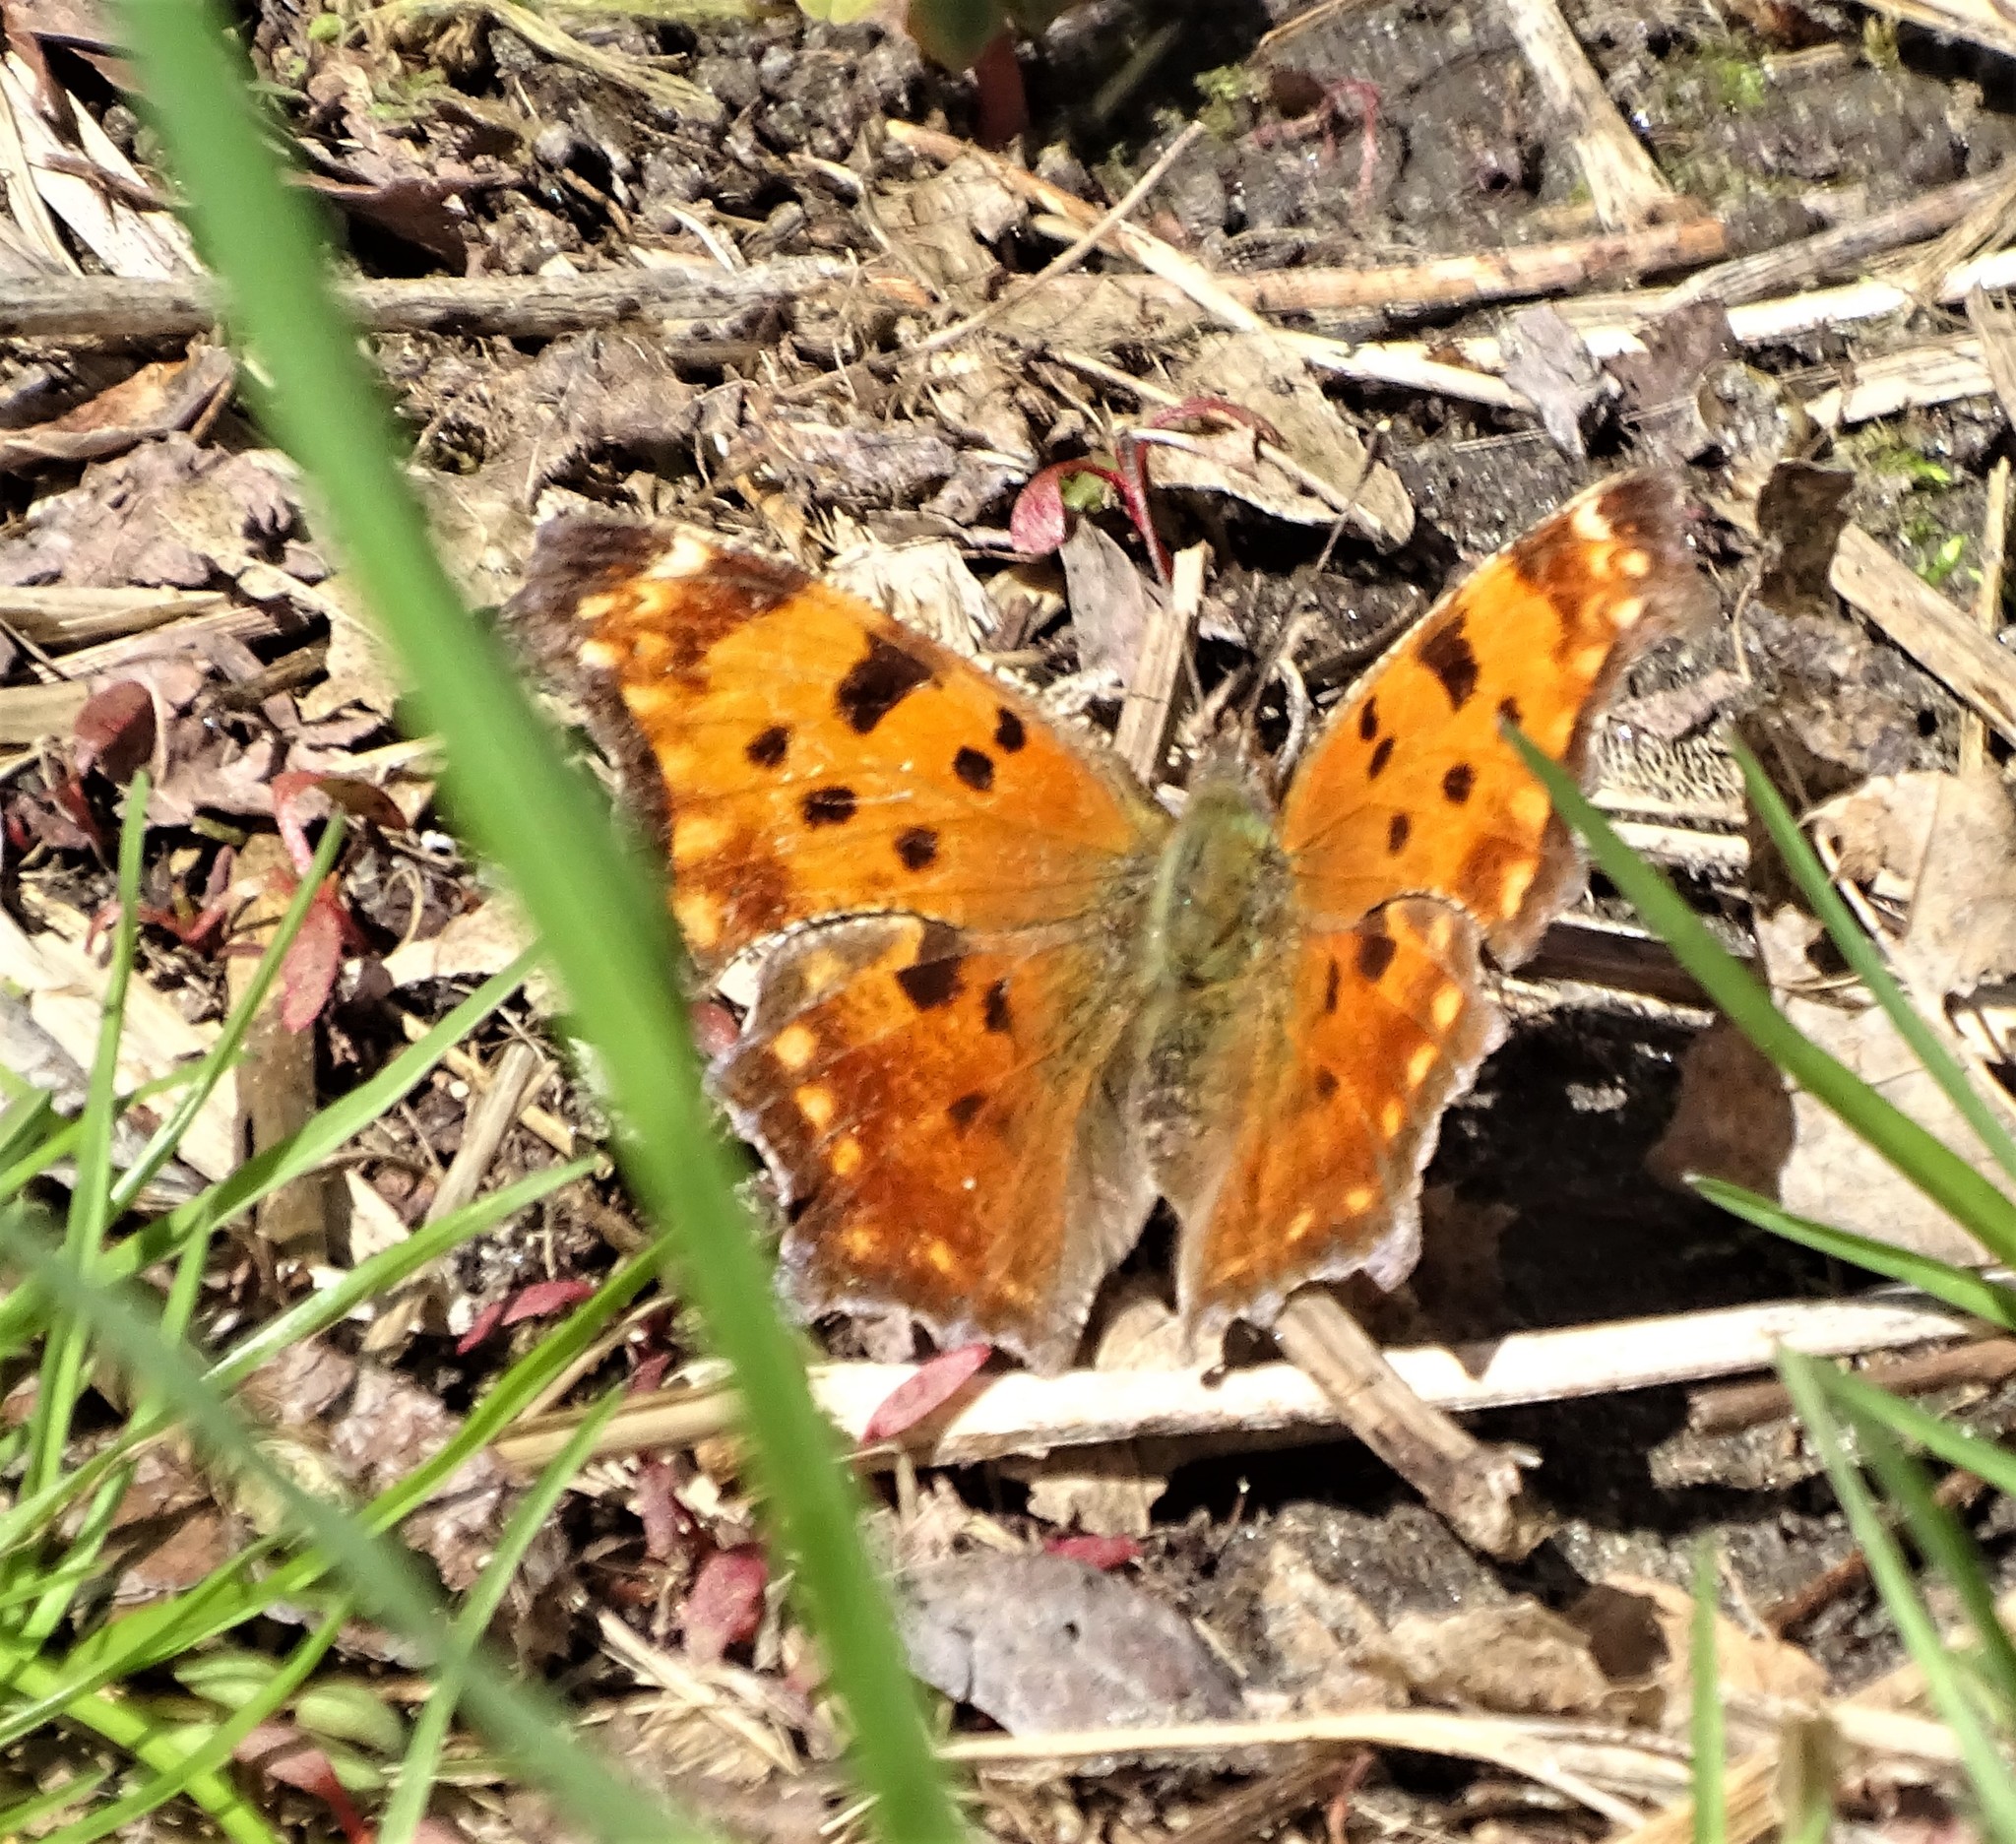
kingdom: Animalia
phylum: Arthropoda
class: Insecta
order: Lepidoptera
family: Nymphalidae
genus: Polygonia
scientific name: Polygonia comma
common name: Eastern comma
